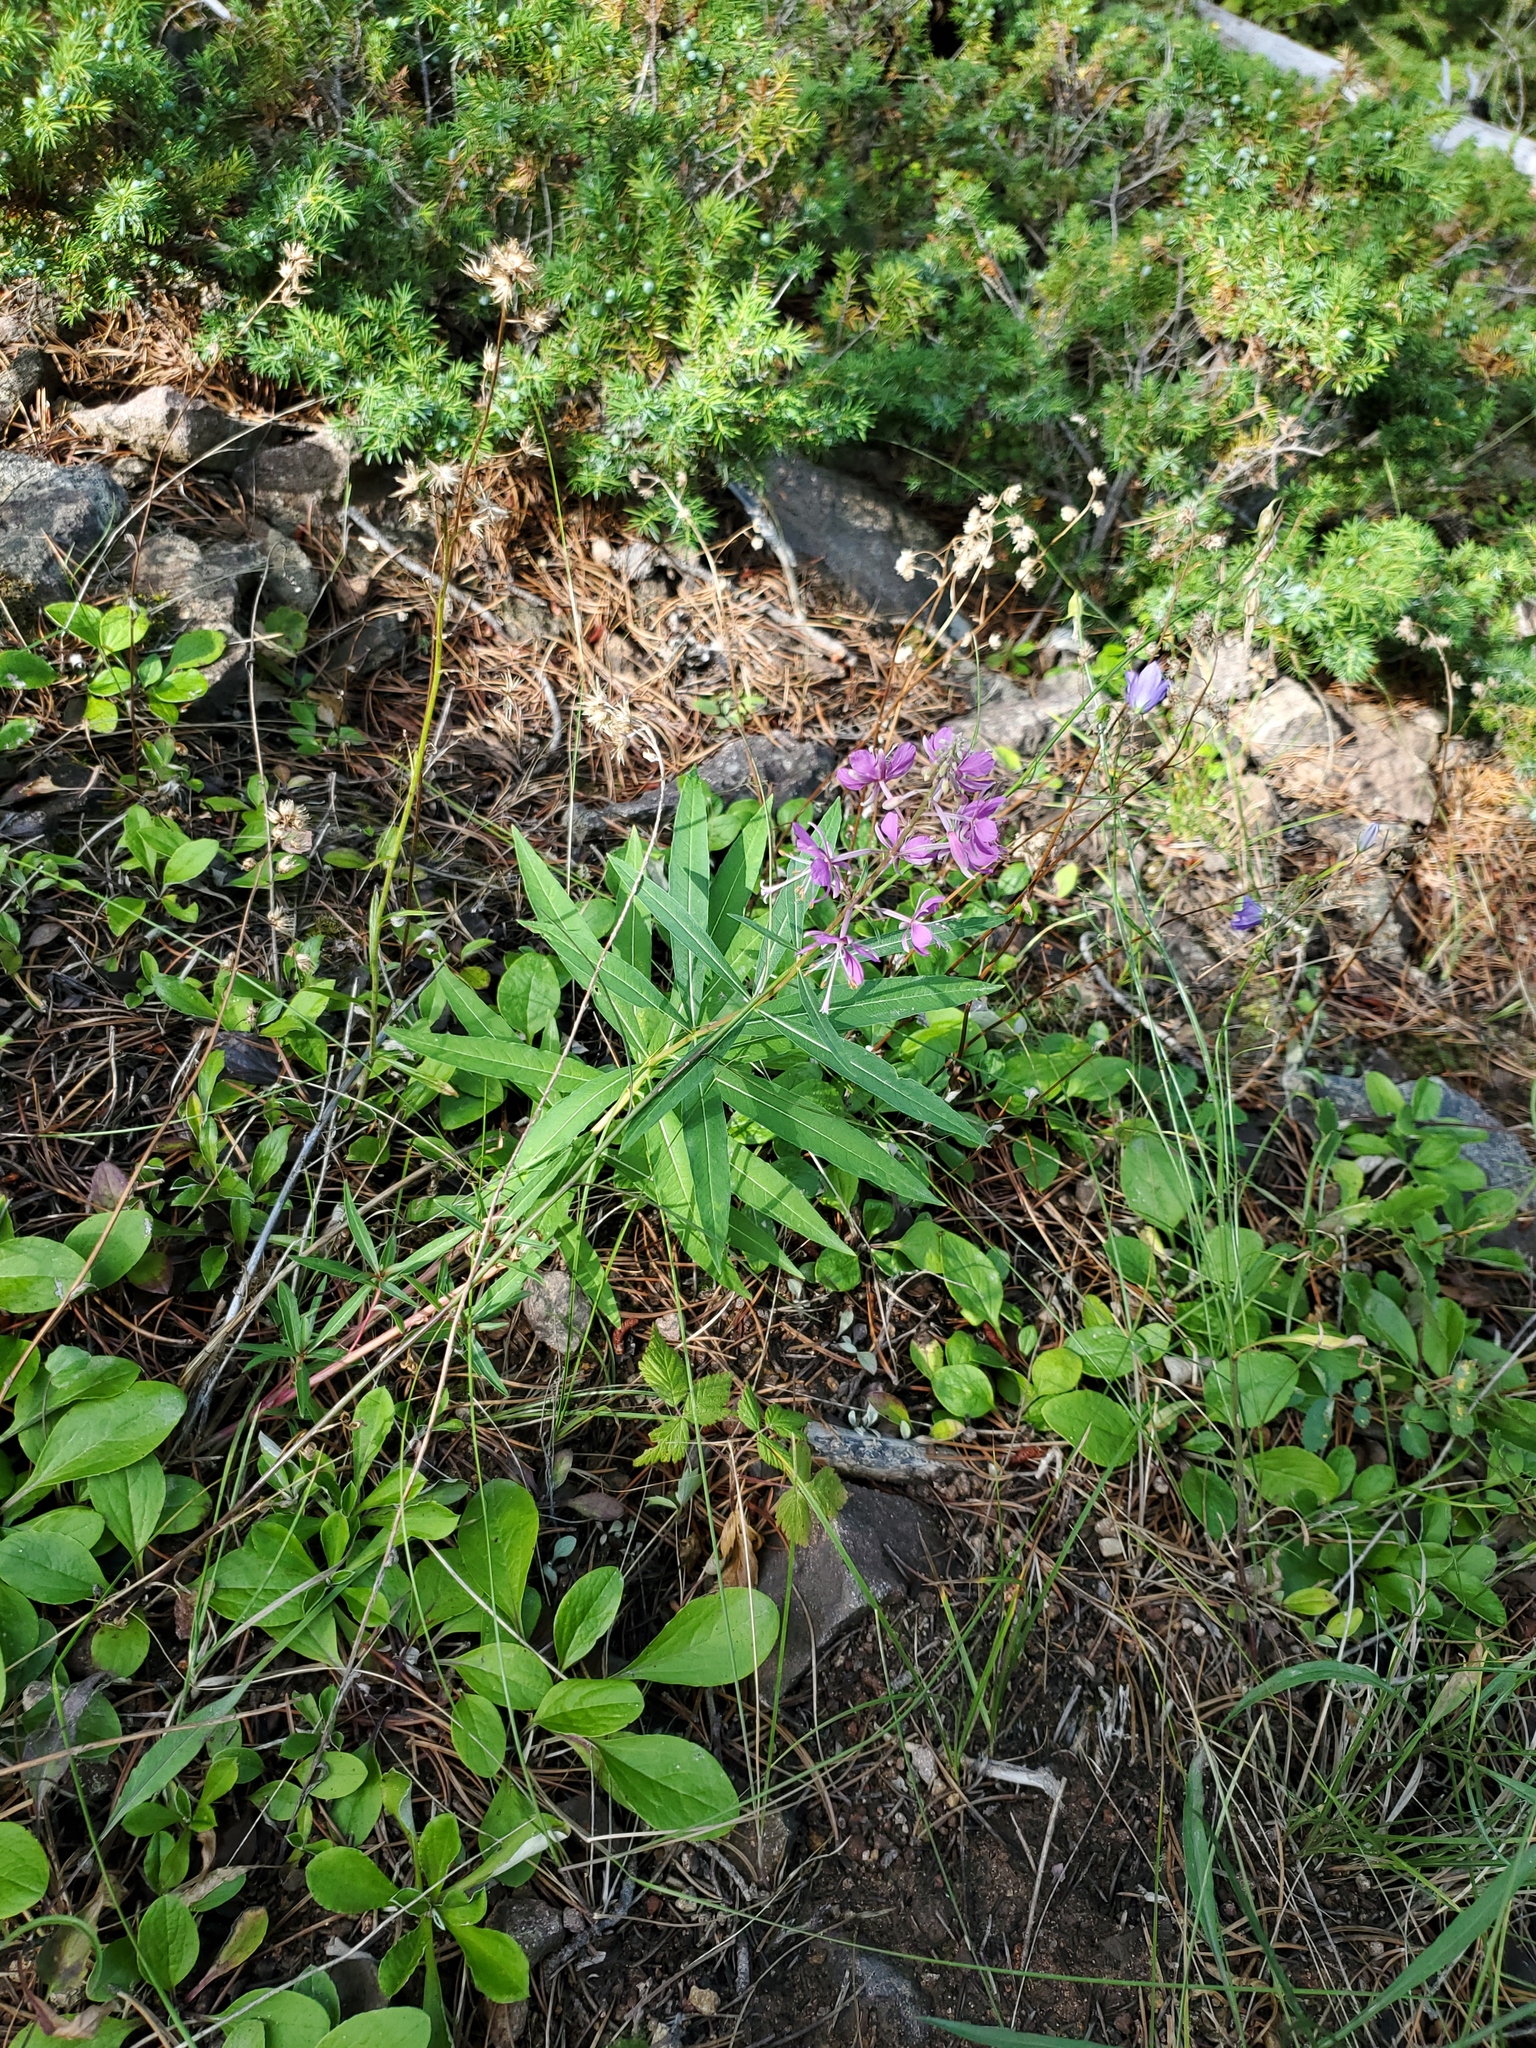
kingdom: Plantae
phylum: Tracheophyta
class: Magnoliopsida
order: Myrtales
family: Onagraceae
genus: Chamaenerion
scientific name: Chamaenerion angustifolium
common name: Fireweed
